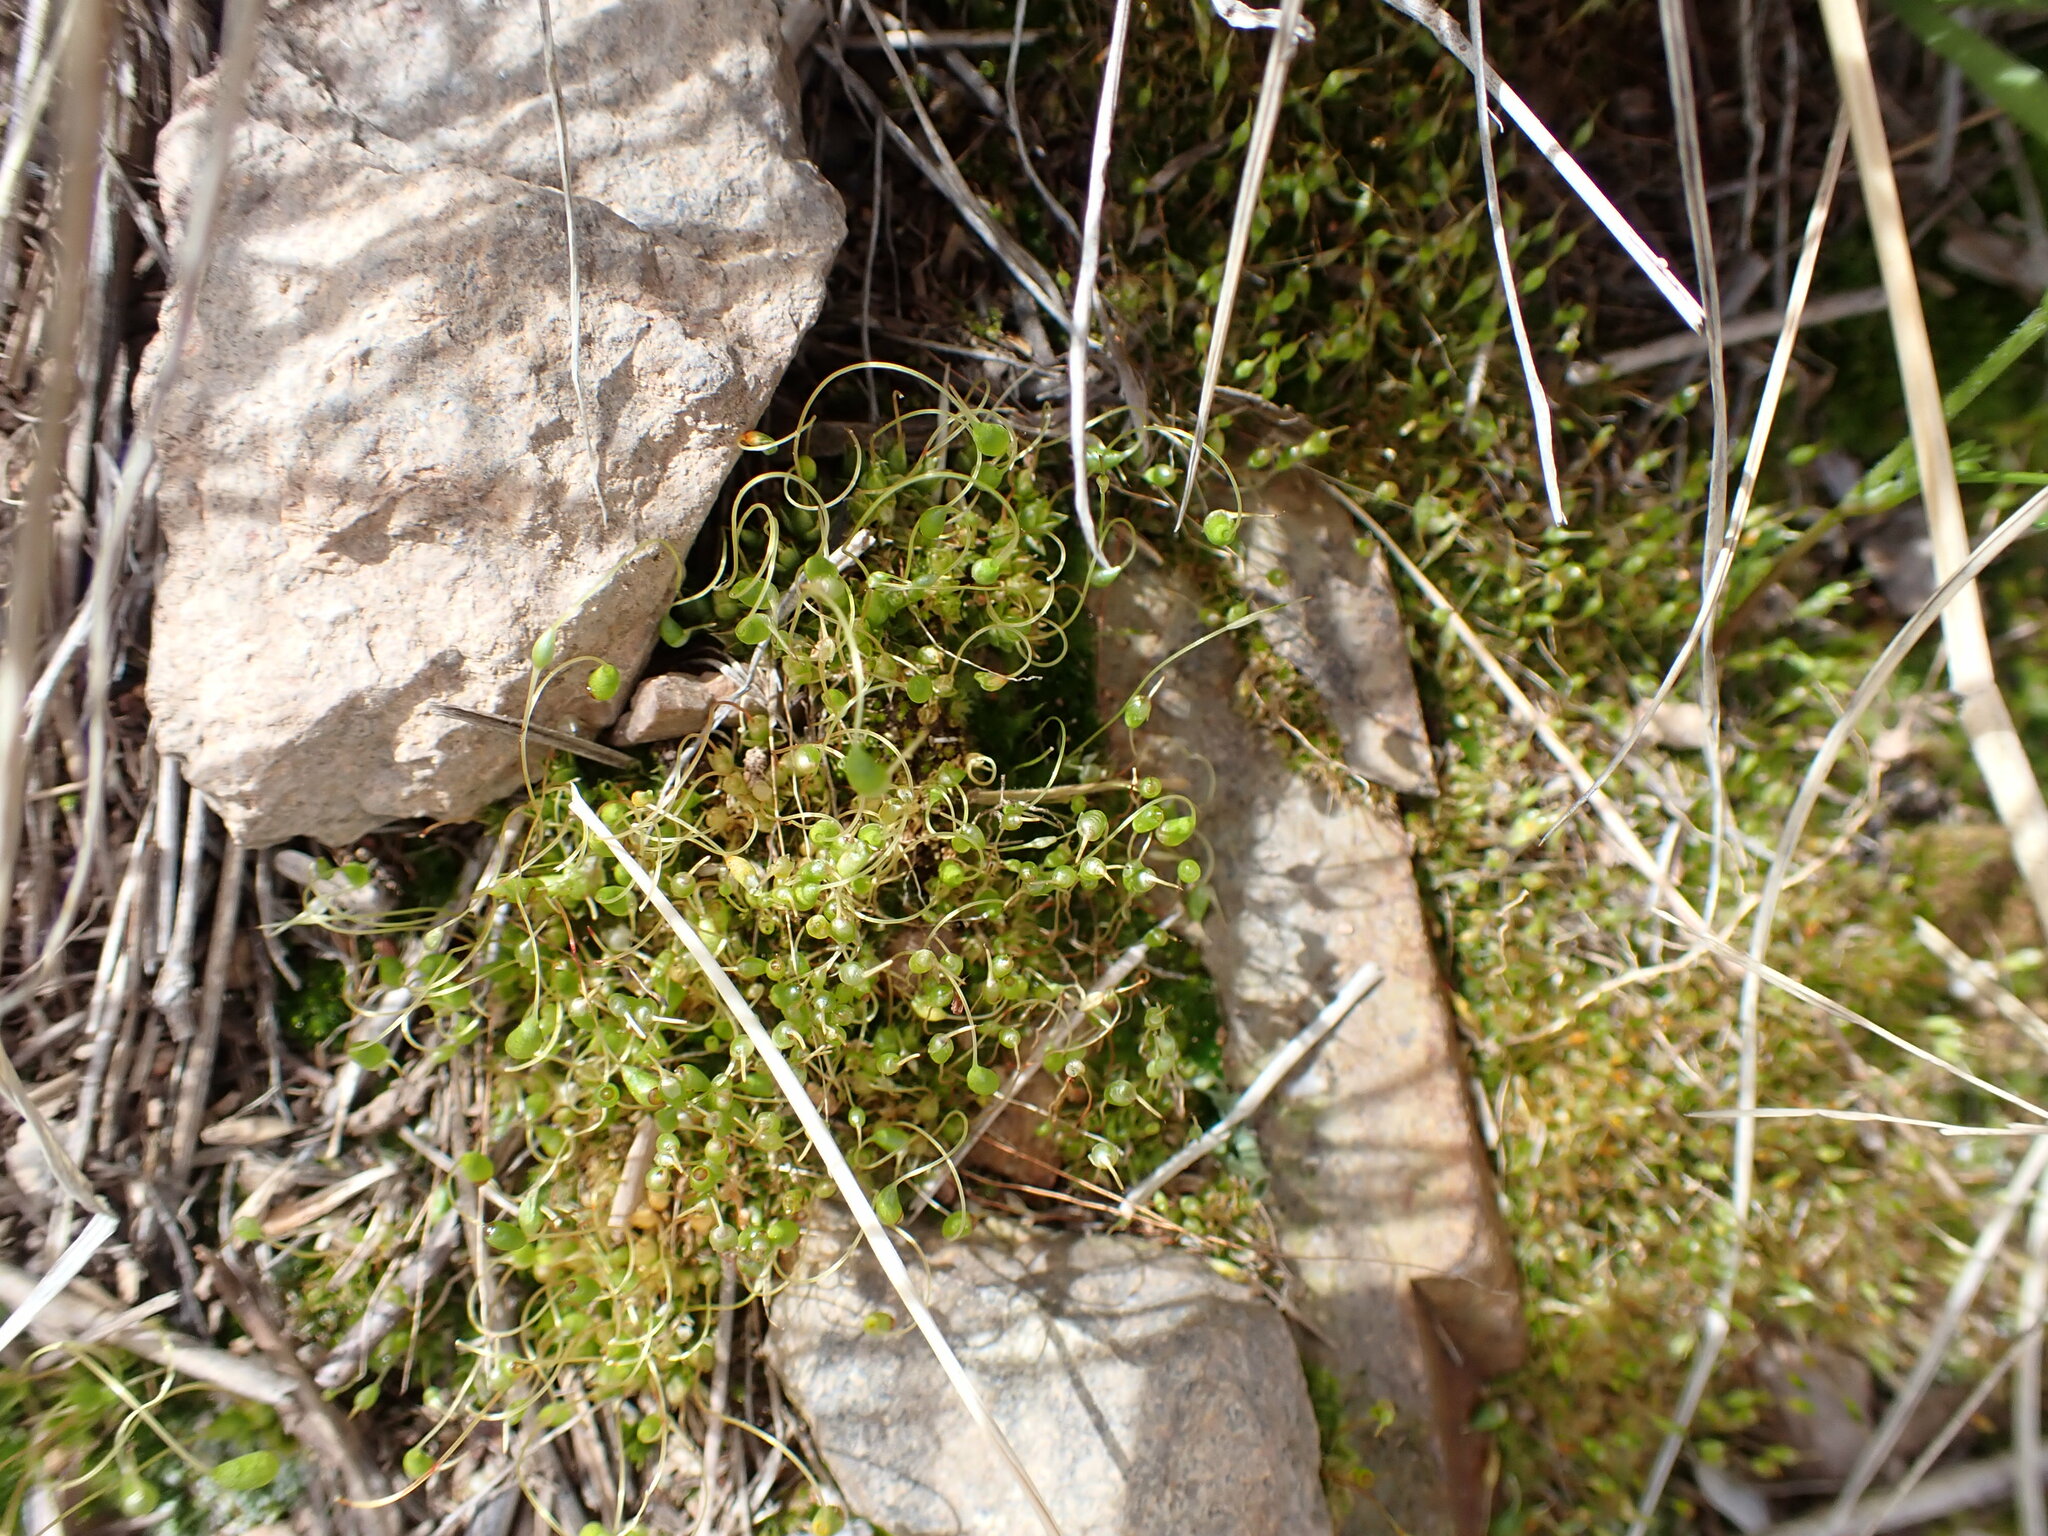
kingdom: Plantae
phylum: Bryophyta
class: Bryopsida
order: Funariales
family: Funariaceae
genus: Funaria
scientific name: Funaria hygrometrica
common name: Common cord moss
